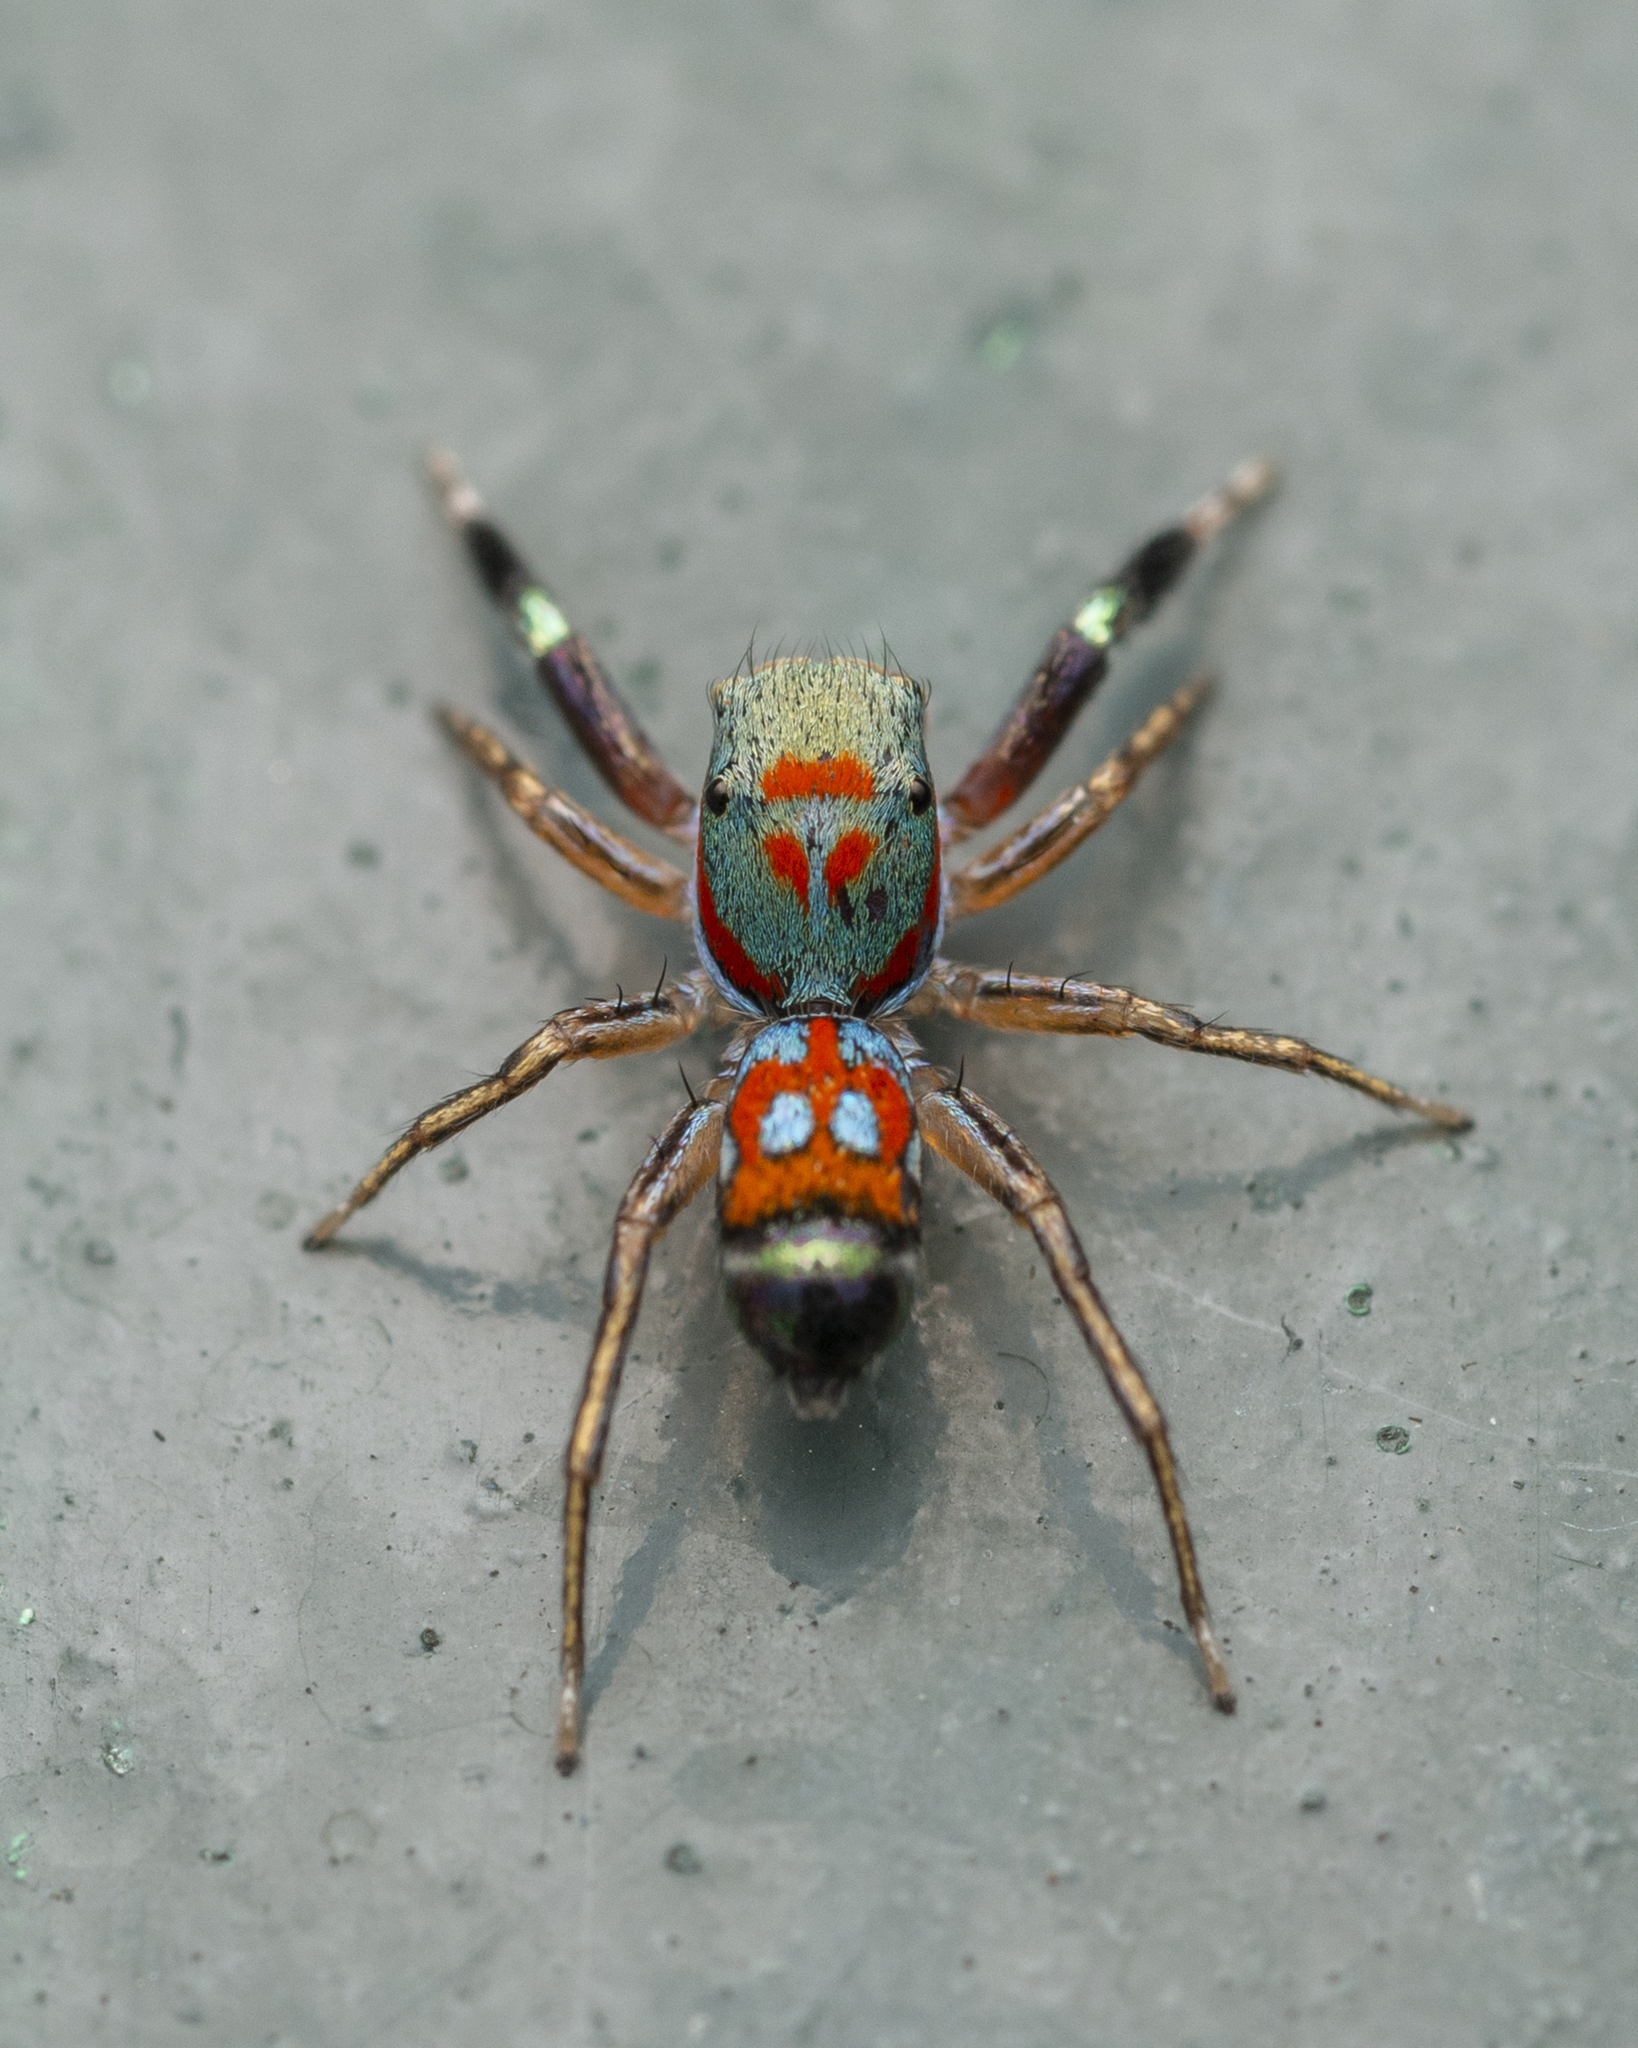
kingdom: Animalia
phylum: Arthropoda
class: Arachnida
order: Araneae
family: Salticidae
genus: Siler
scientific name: Siler collingwoodi
